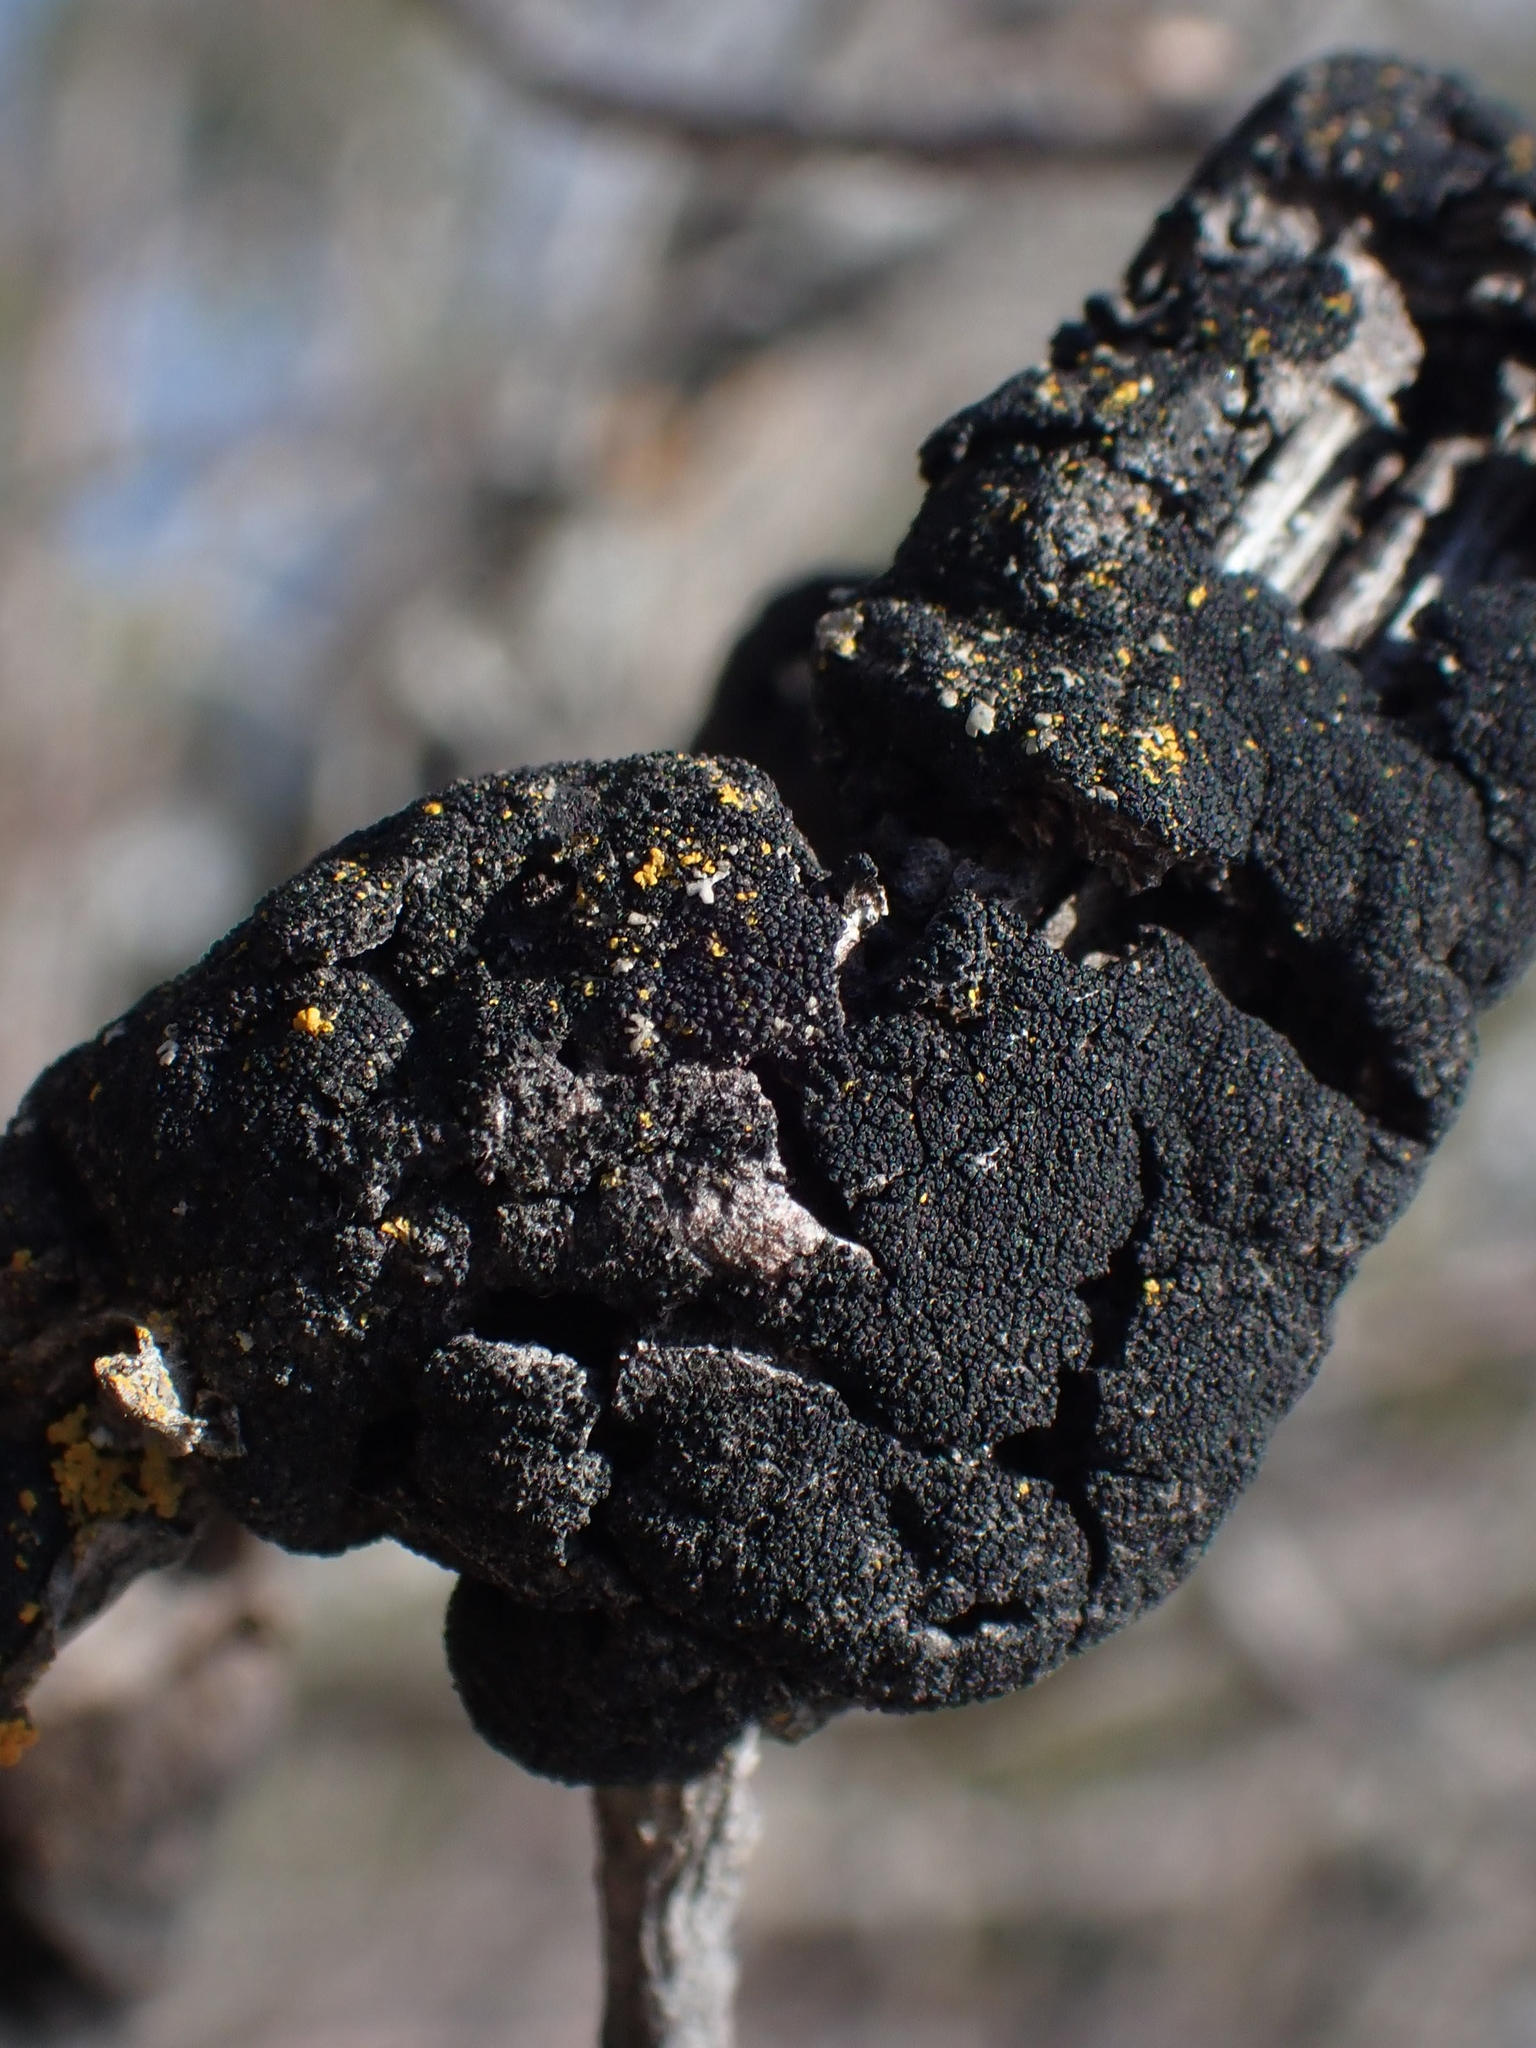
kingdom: Fungi
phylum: Ascomycota
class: Dothideomycetes
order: Venturiales
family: Venturiaceae
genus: Apiosporina
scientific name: Apiosporina morbosa
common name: Black knot
